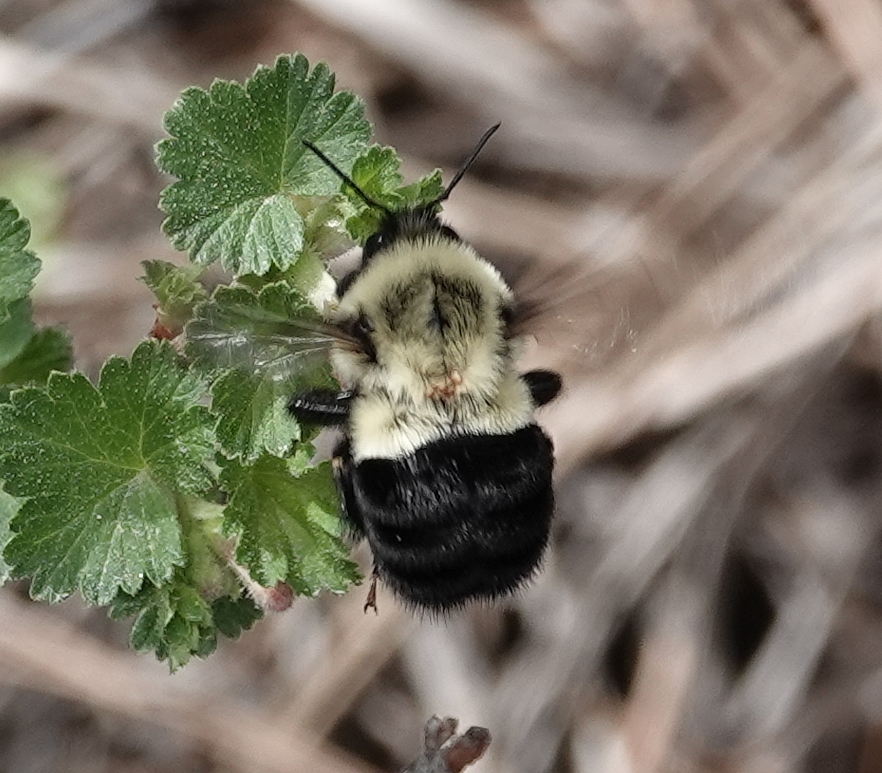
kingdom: Animalia
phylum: Arthropoda
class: Insecta
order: Hymenoptera
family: Apidae
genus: Bombus
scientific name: Bombus impatiens
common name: Common eastern bumble bee
